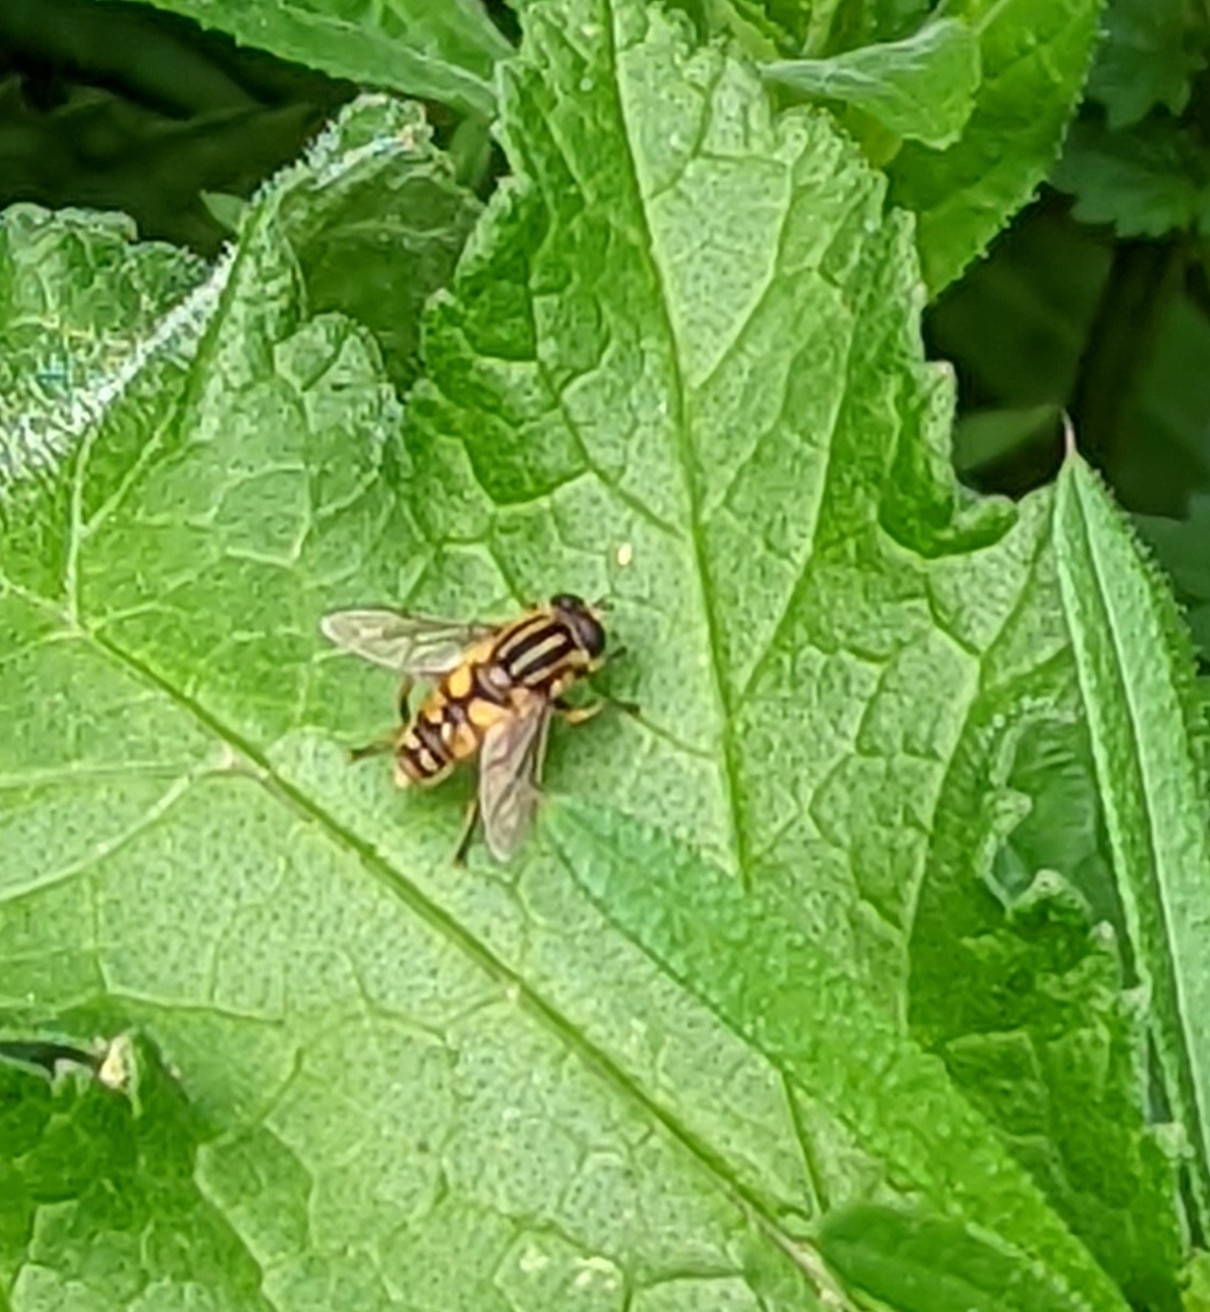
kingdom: Animalia
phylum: Arthropoda
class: Insecta
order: Diptera
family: Syrphidae
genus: Helophilus
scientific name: Helophilus pendulus
